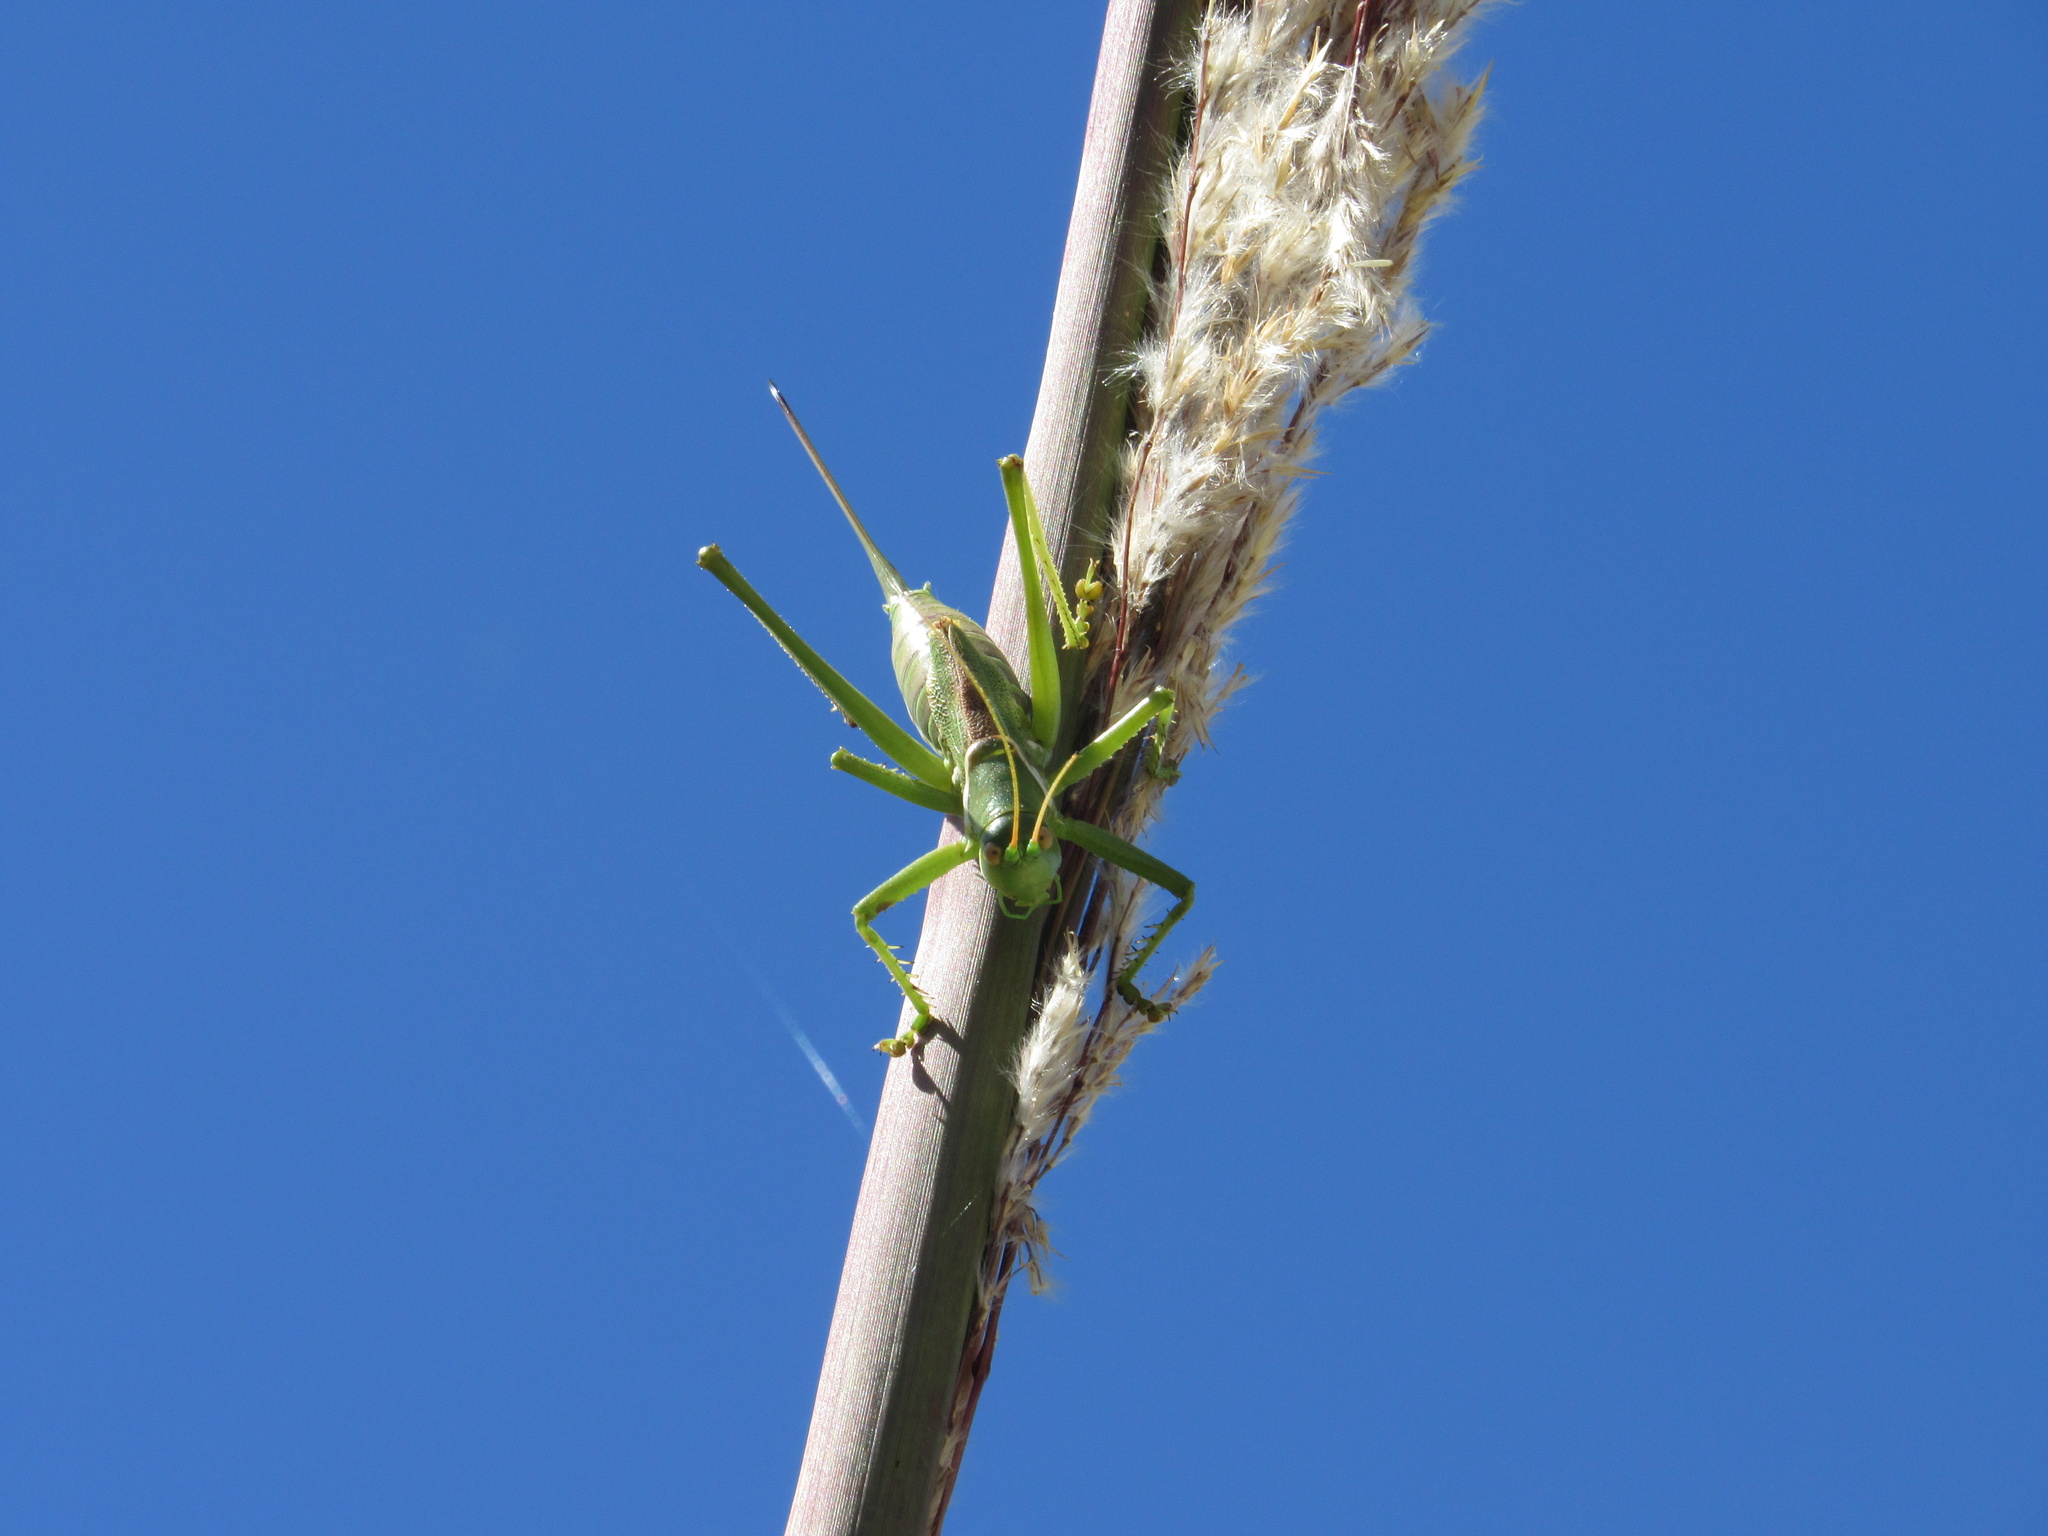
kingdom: Animalia
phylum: Arthropoda
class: Insecta
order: Orthoptera
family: Tettigoniidae
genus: Neobarrettia
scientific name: Neobarrettia victoriae
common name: Lesser arid-land katydid
